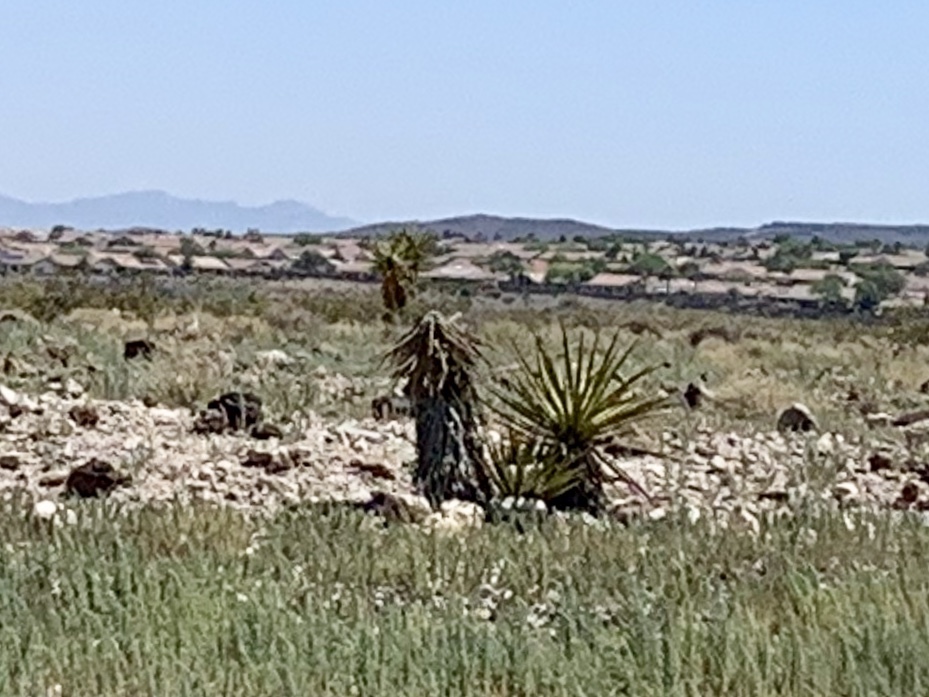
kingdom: Plantae
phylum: Tracheophyta
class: Liliopsida
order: Asparagales
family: Asparagaceae
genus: Yucca
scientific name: Yucca schidigera
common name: Mojave yucca
